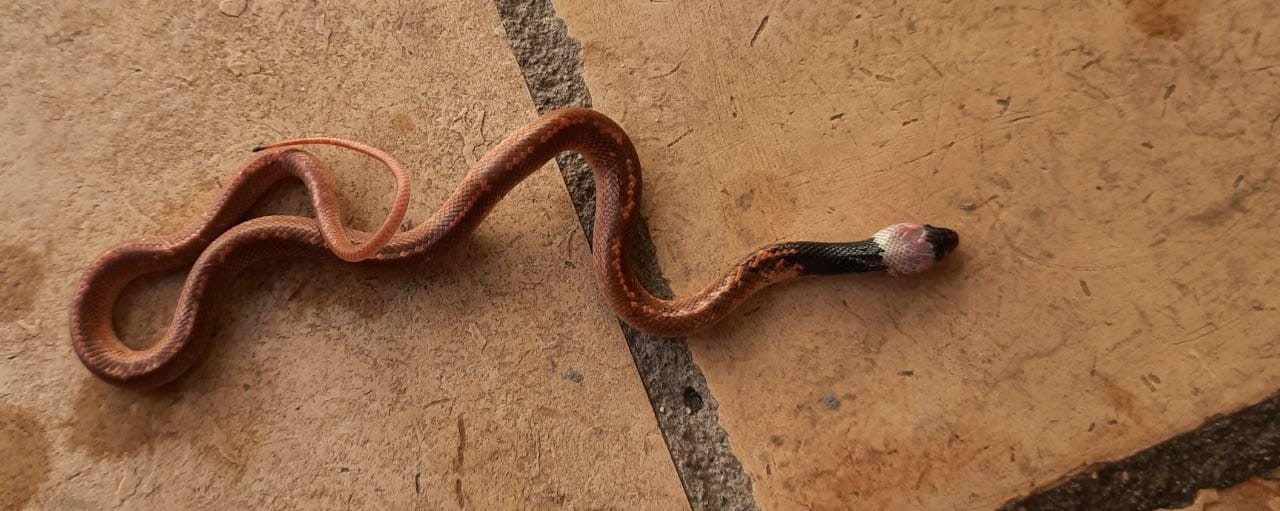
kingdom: Animalia
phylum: Chordata
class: Squamata
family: Colubridae
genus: Pseudoboa
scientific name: Pseudoboa nigra
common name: Black false boa
